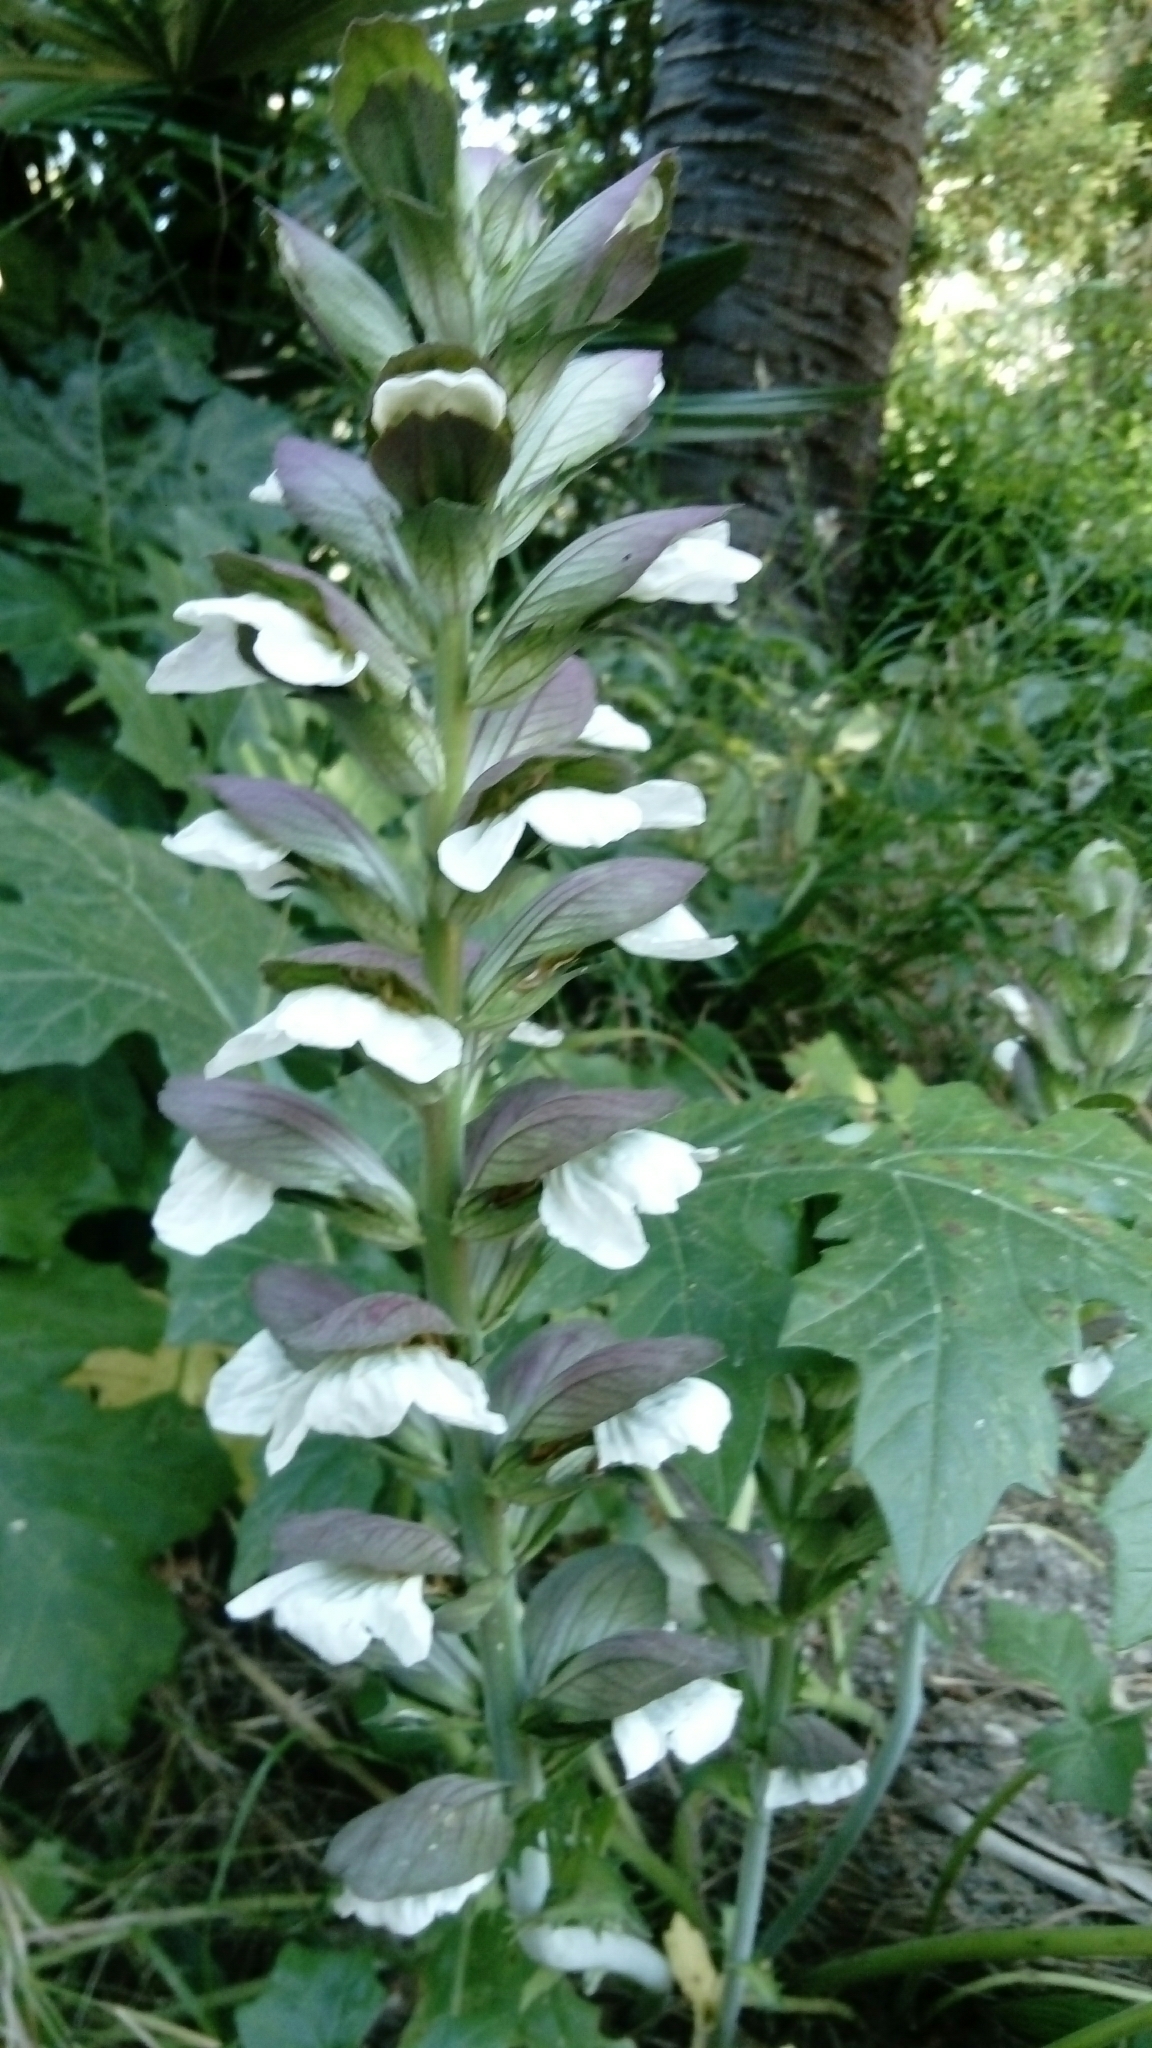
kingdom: Plantae
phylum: Tracheophyta
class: Magnoliopsida
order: Lamiales
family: Acanthaceae
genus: Acanthus
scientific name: Acanthus mollis
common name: Bear's-breech
